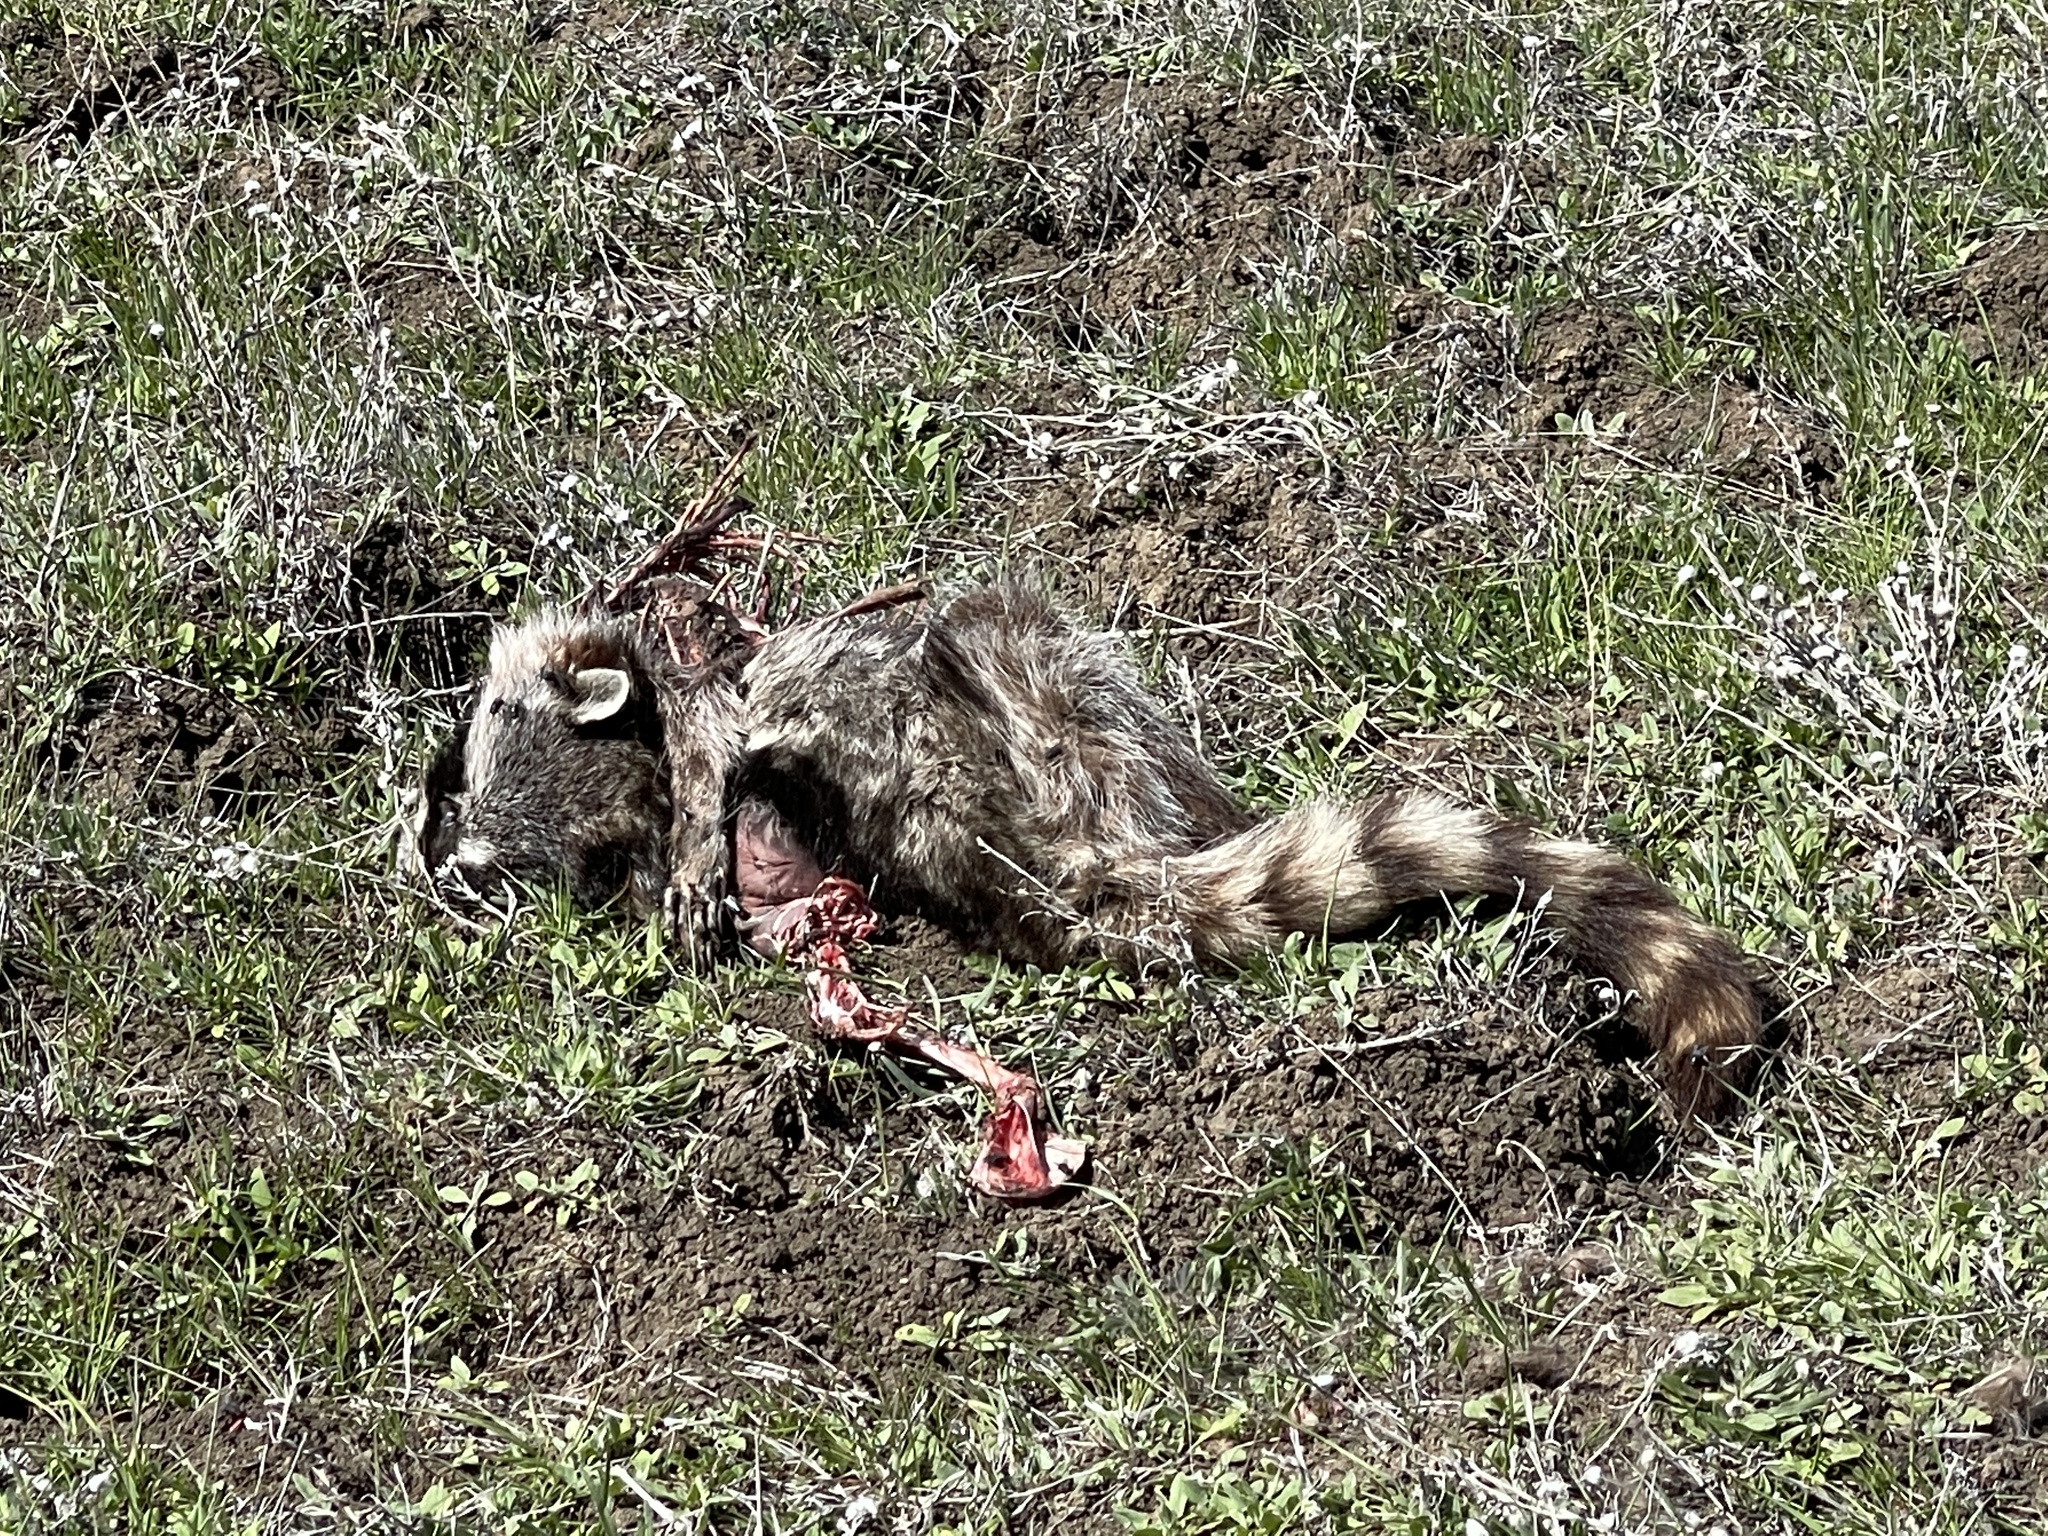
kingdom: Animalia
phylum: Chordata
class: Mammalia
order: Carnivora
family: Procyonidae
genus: Procyon
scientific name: Procyon lotor
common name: Raccoon
